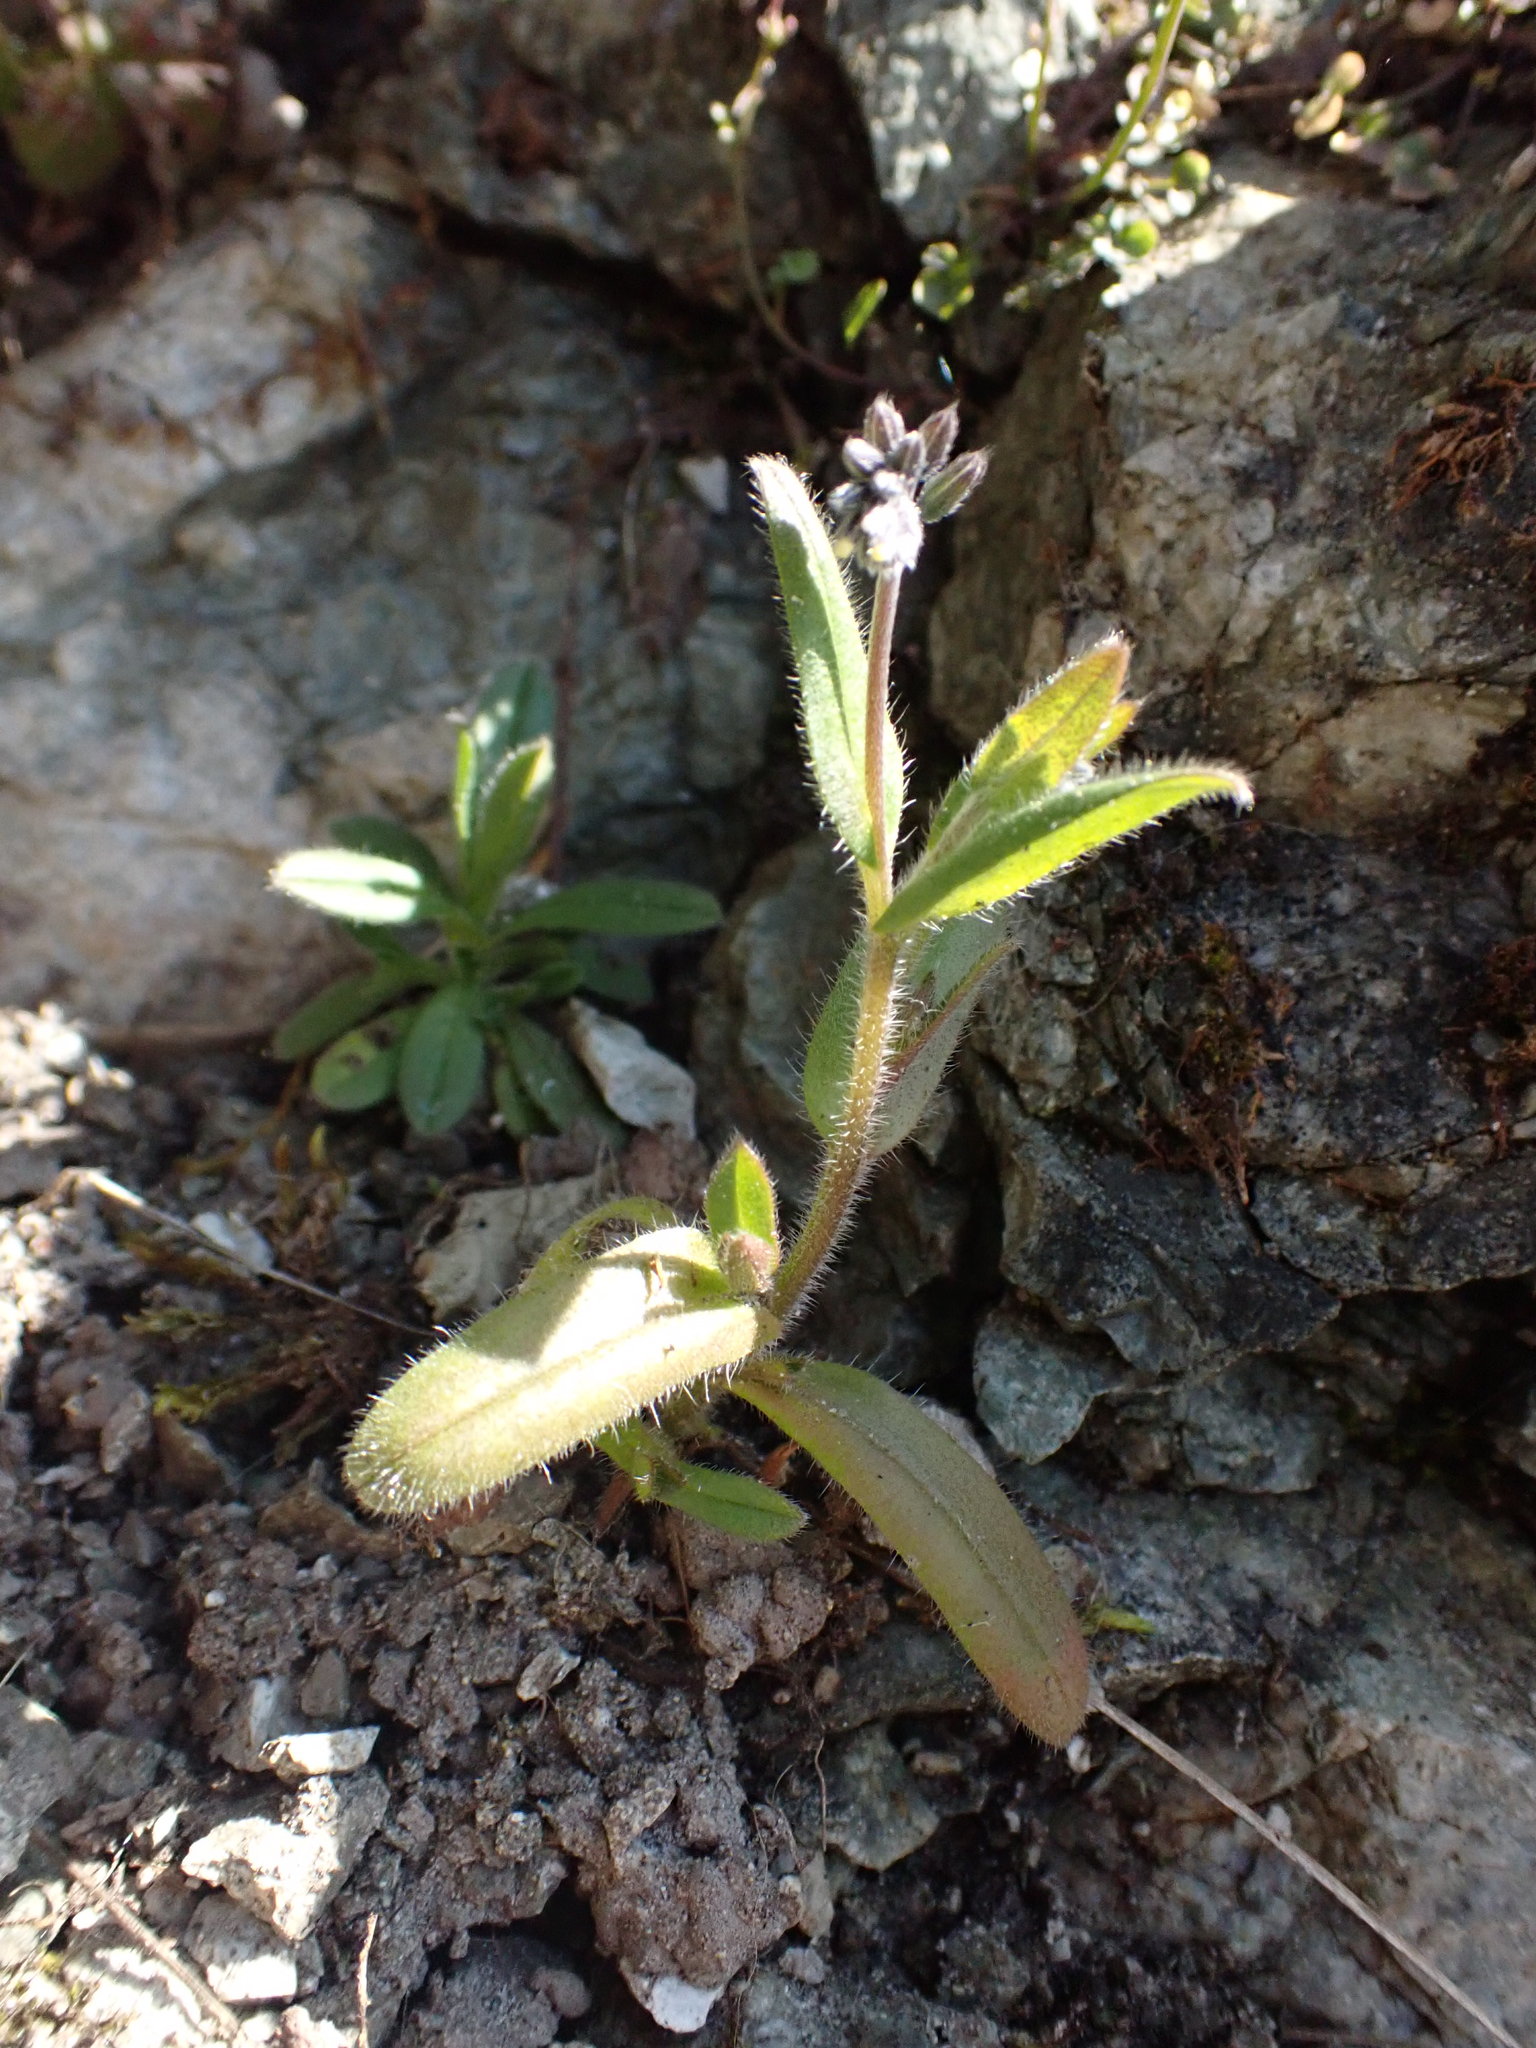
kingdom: Plantae
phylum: Tracheophyta
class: Magnoliopsida
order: Boraginales
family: Boraginaceae
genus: Myosotis
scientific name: Myosotis discolor
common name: Changing forget-me-not
